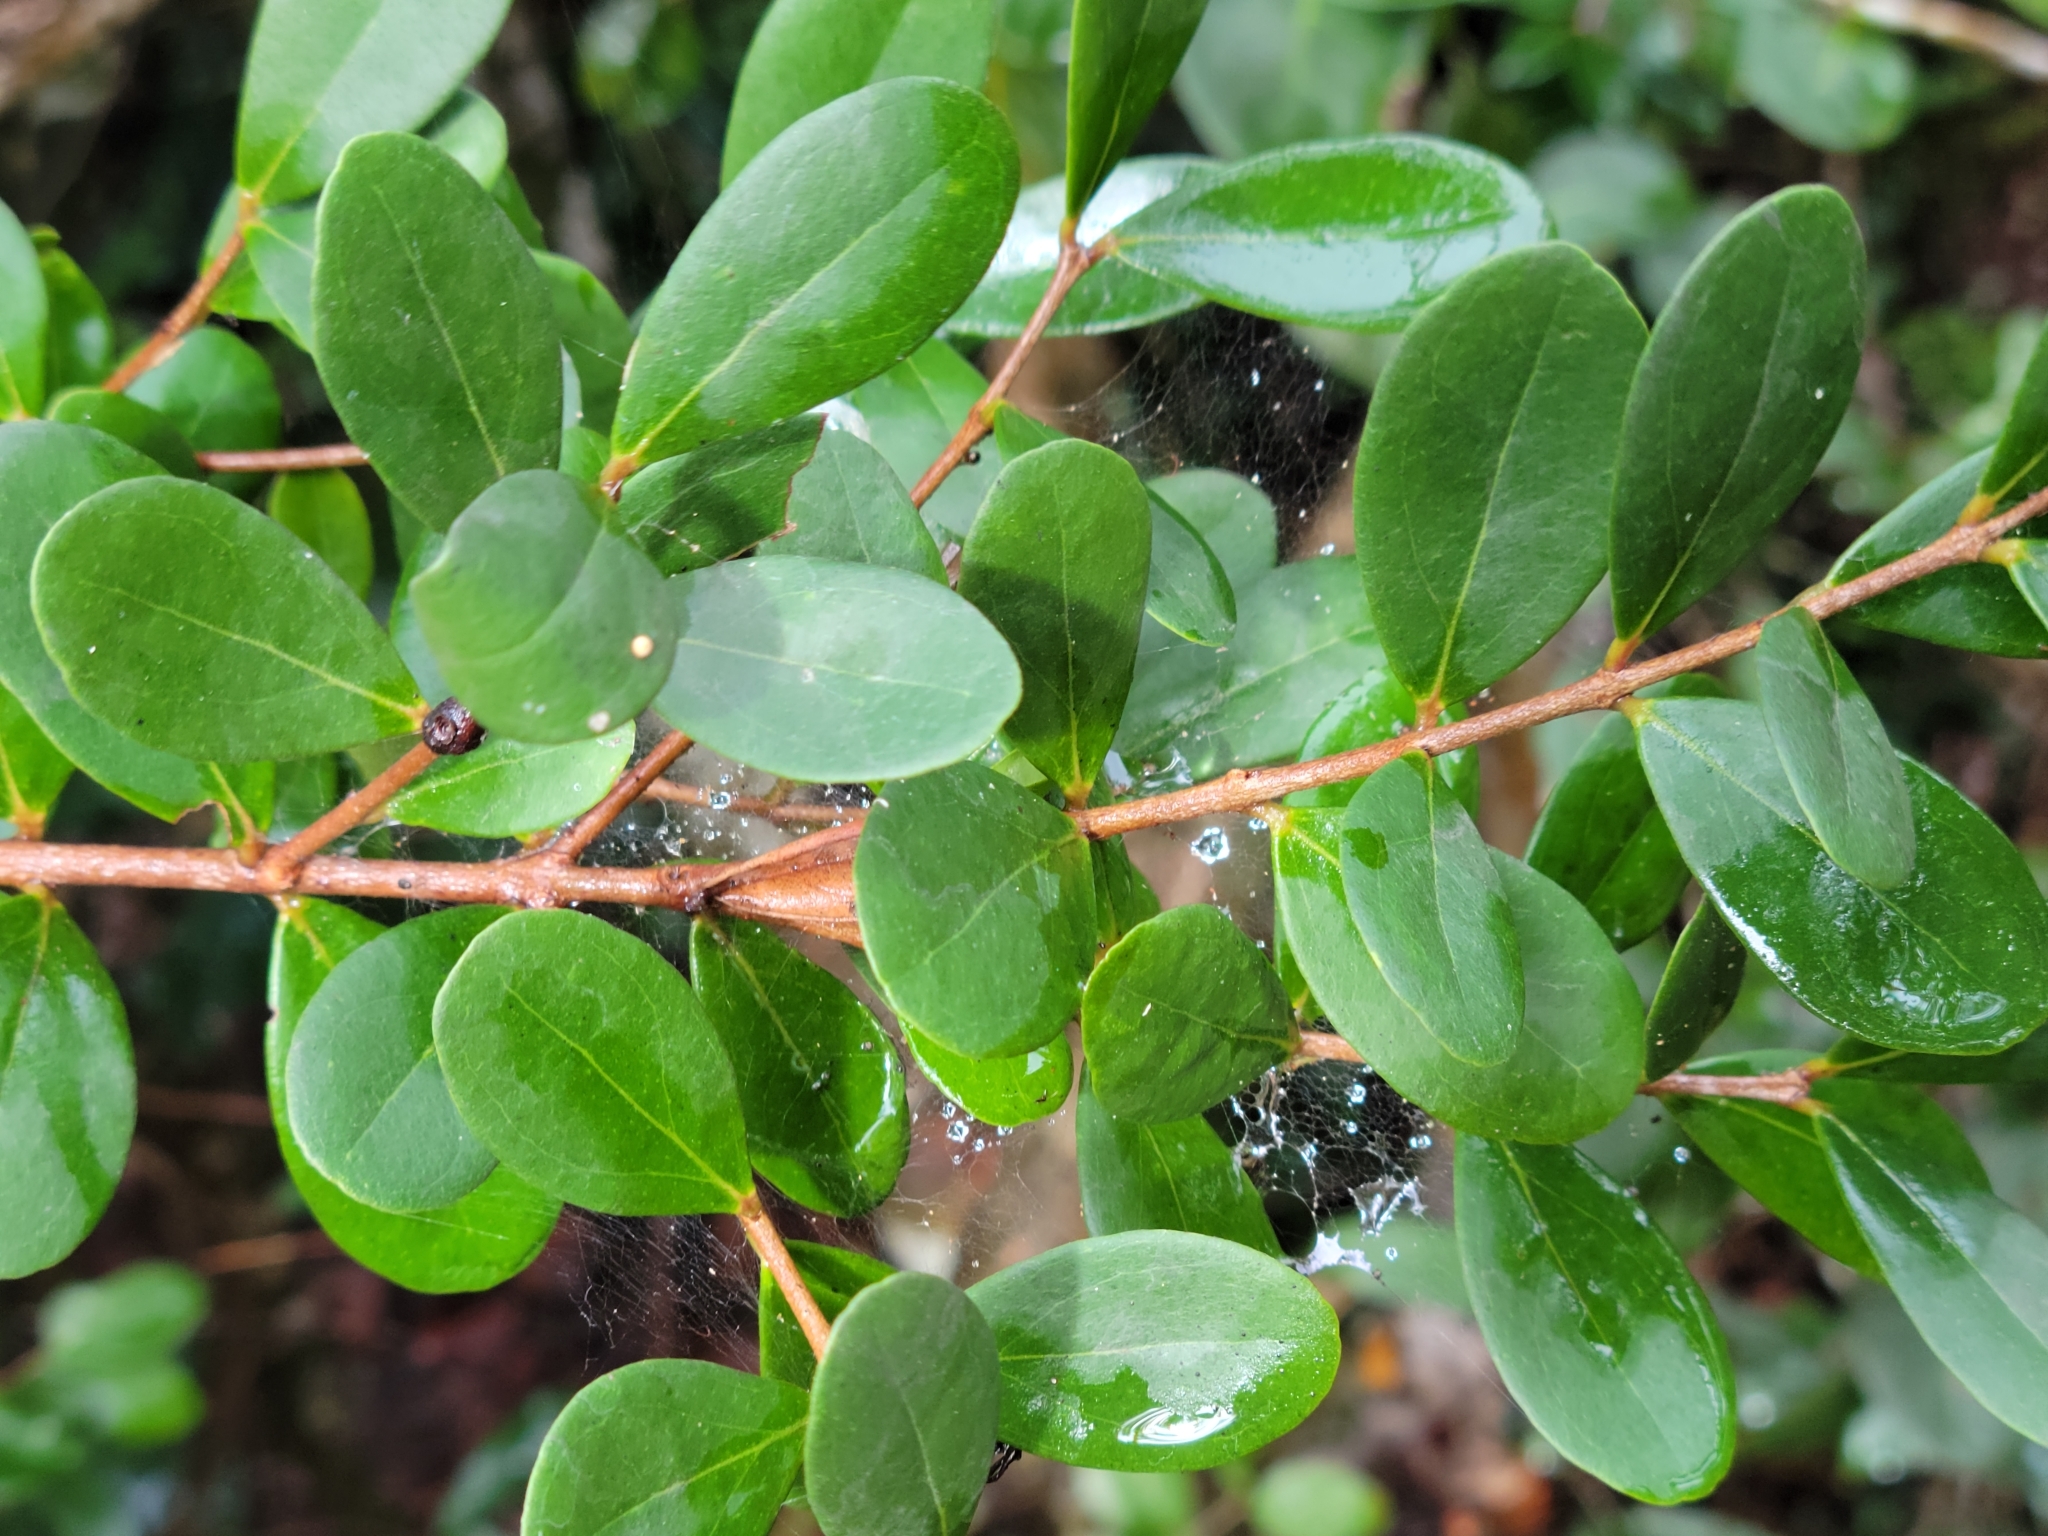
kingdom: Plantae
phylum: Tracheophyta
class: Magnoliopsida
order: Myrtales
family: Myrtaceae
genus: Eugenia
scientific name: Eugenia foetida
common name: White wattling
